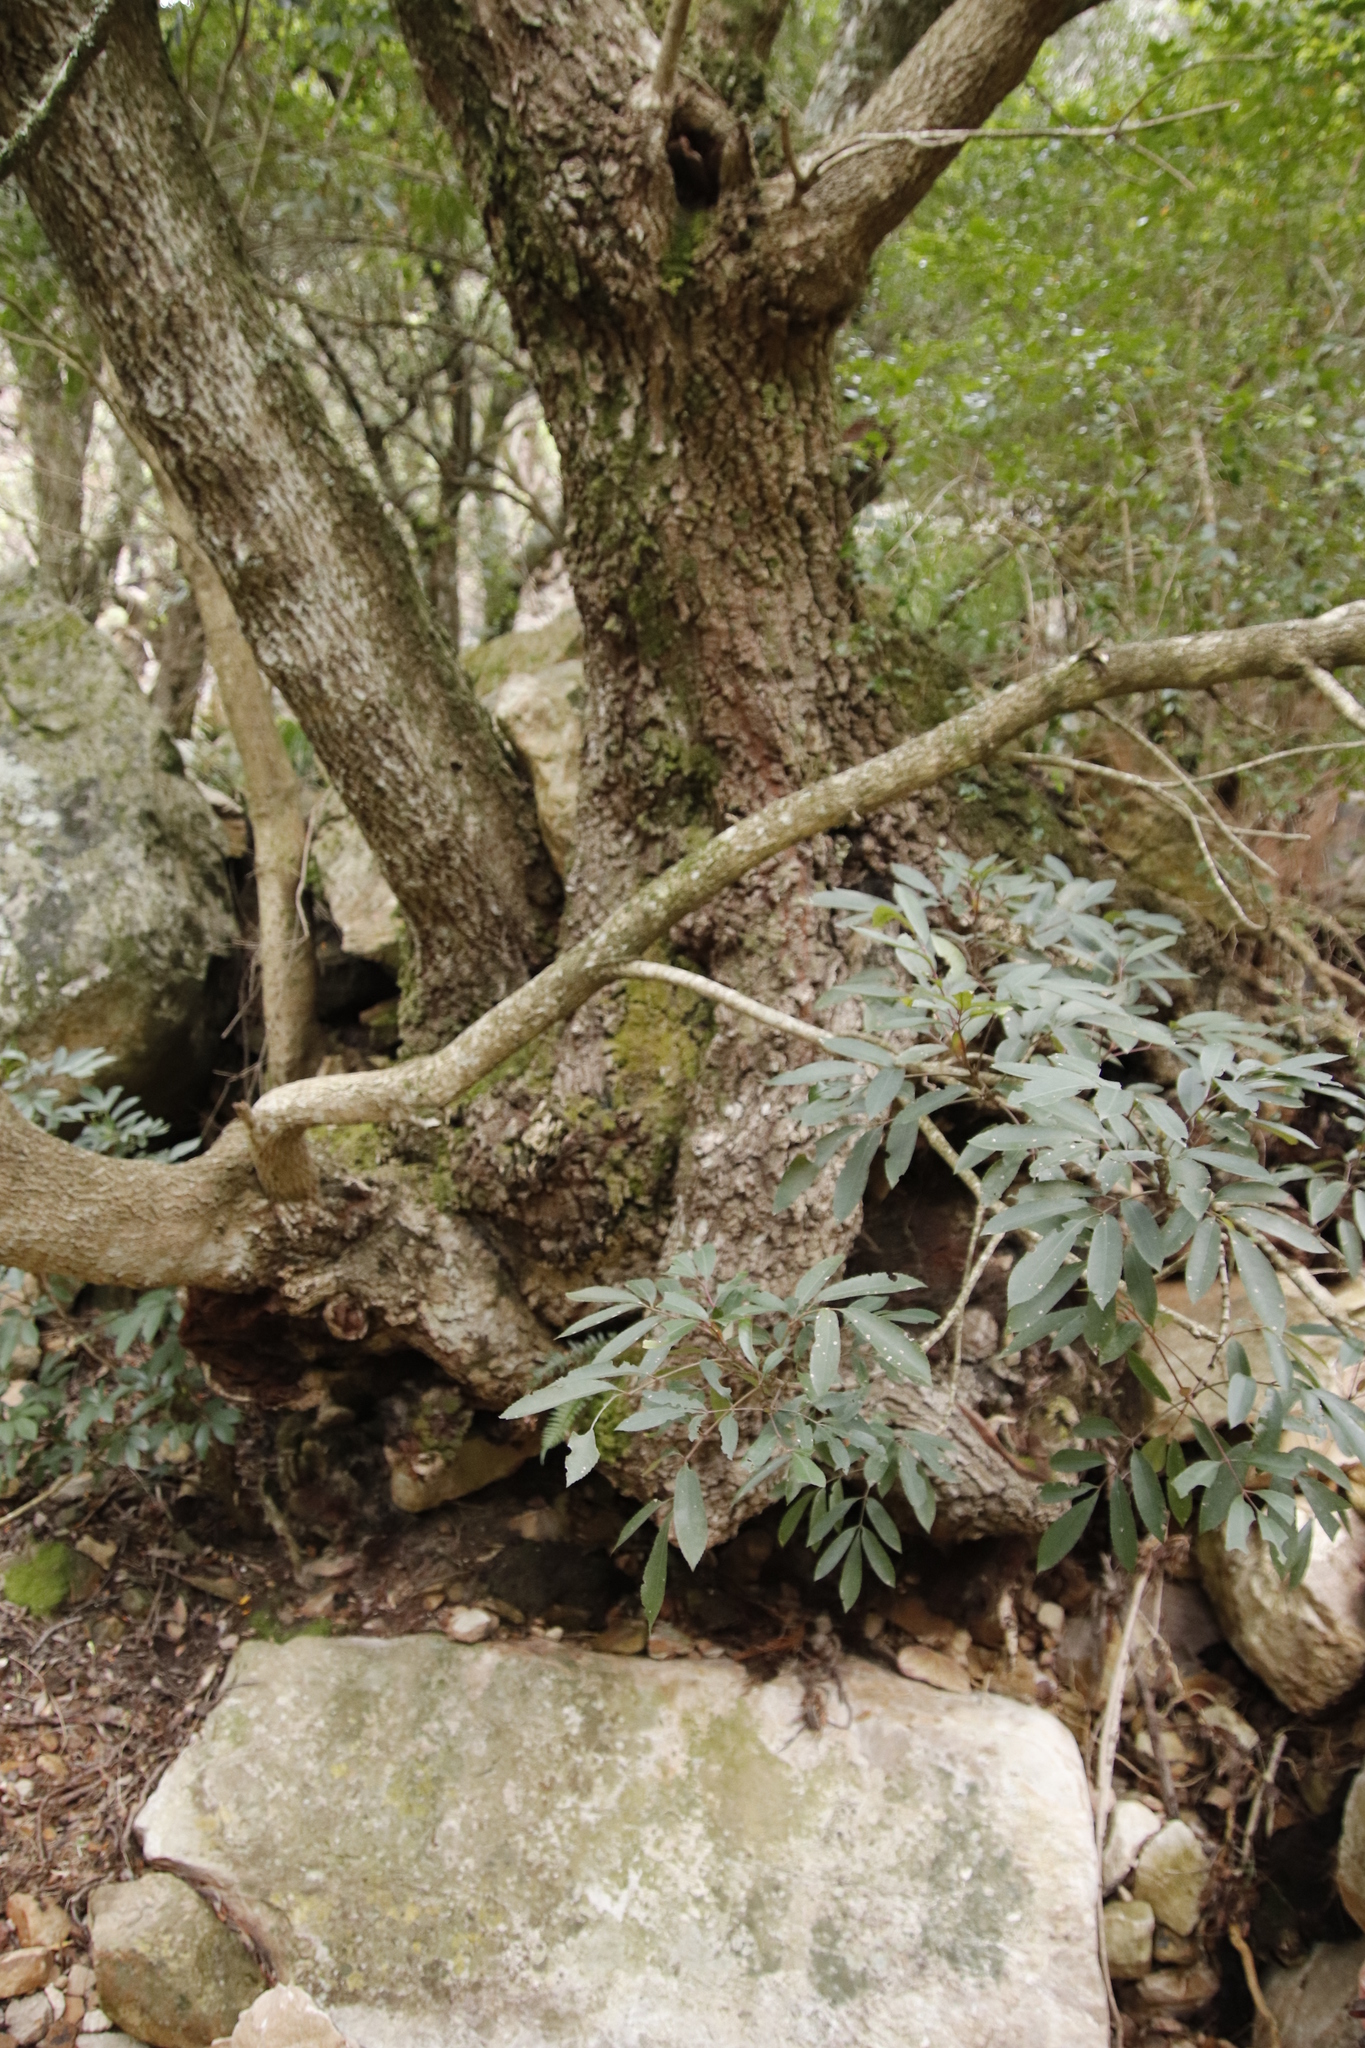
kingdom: Plantae
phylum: Tracheophyta
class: Magnoliopsida
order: Oxalidales
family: Cunoniaceae
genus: Cunonia
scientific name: Cunonia capensis
